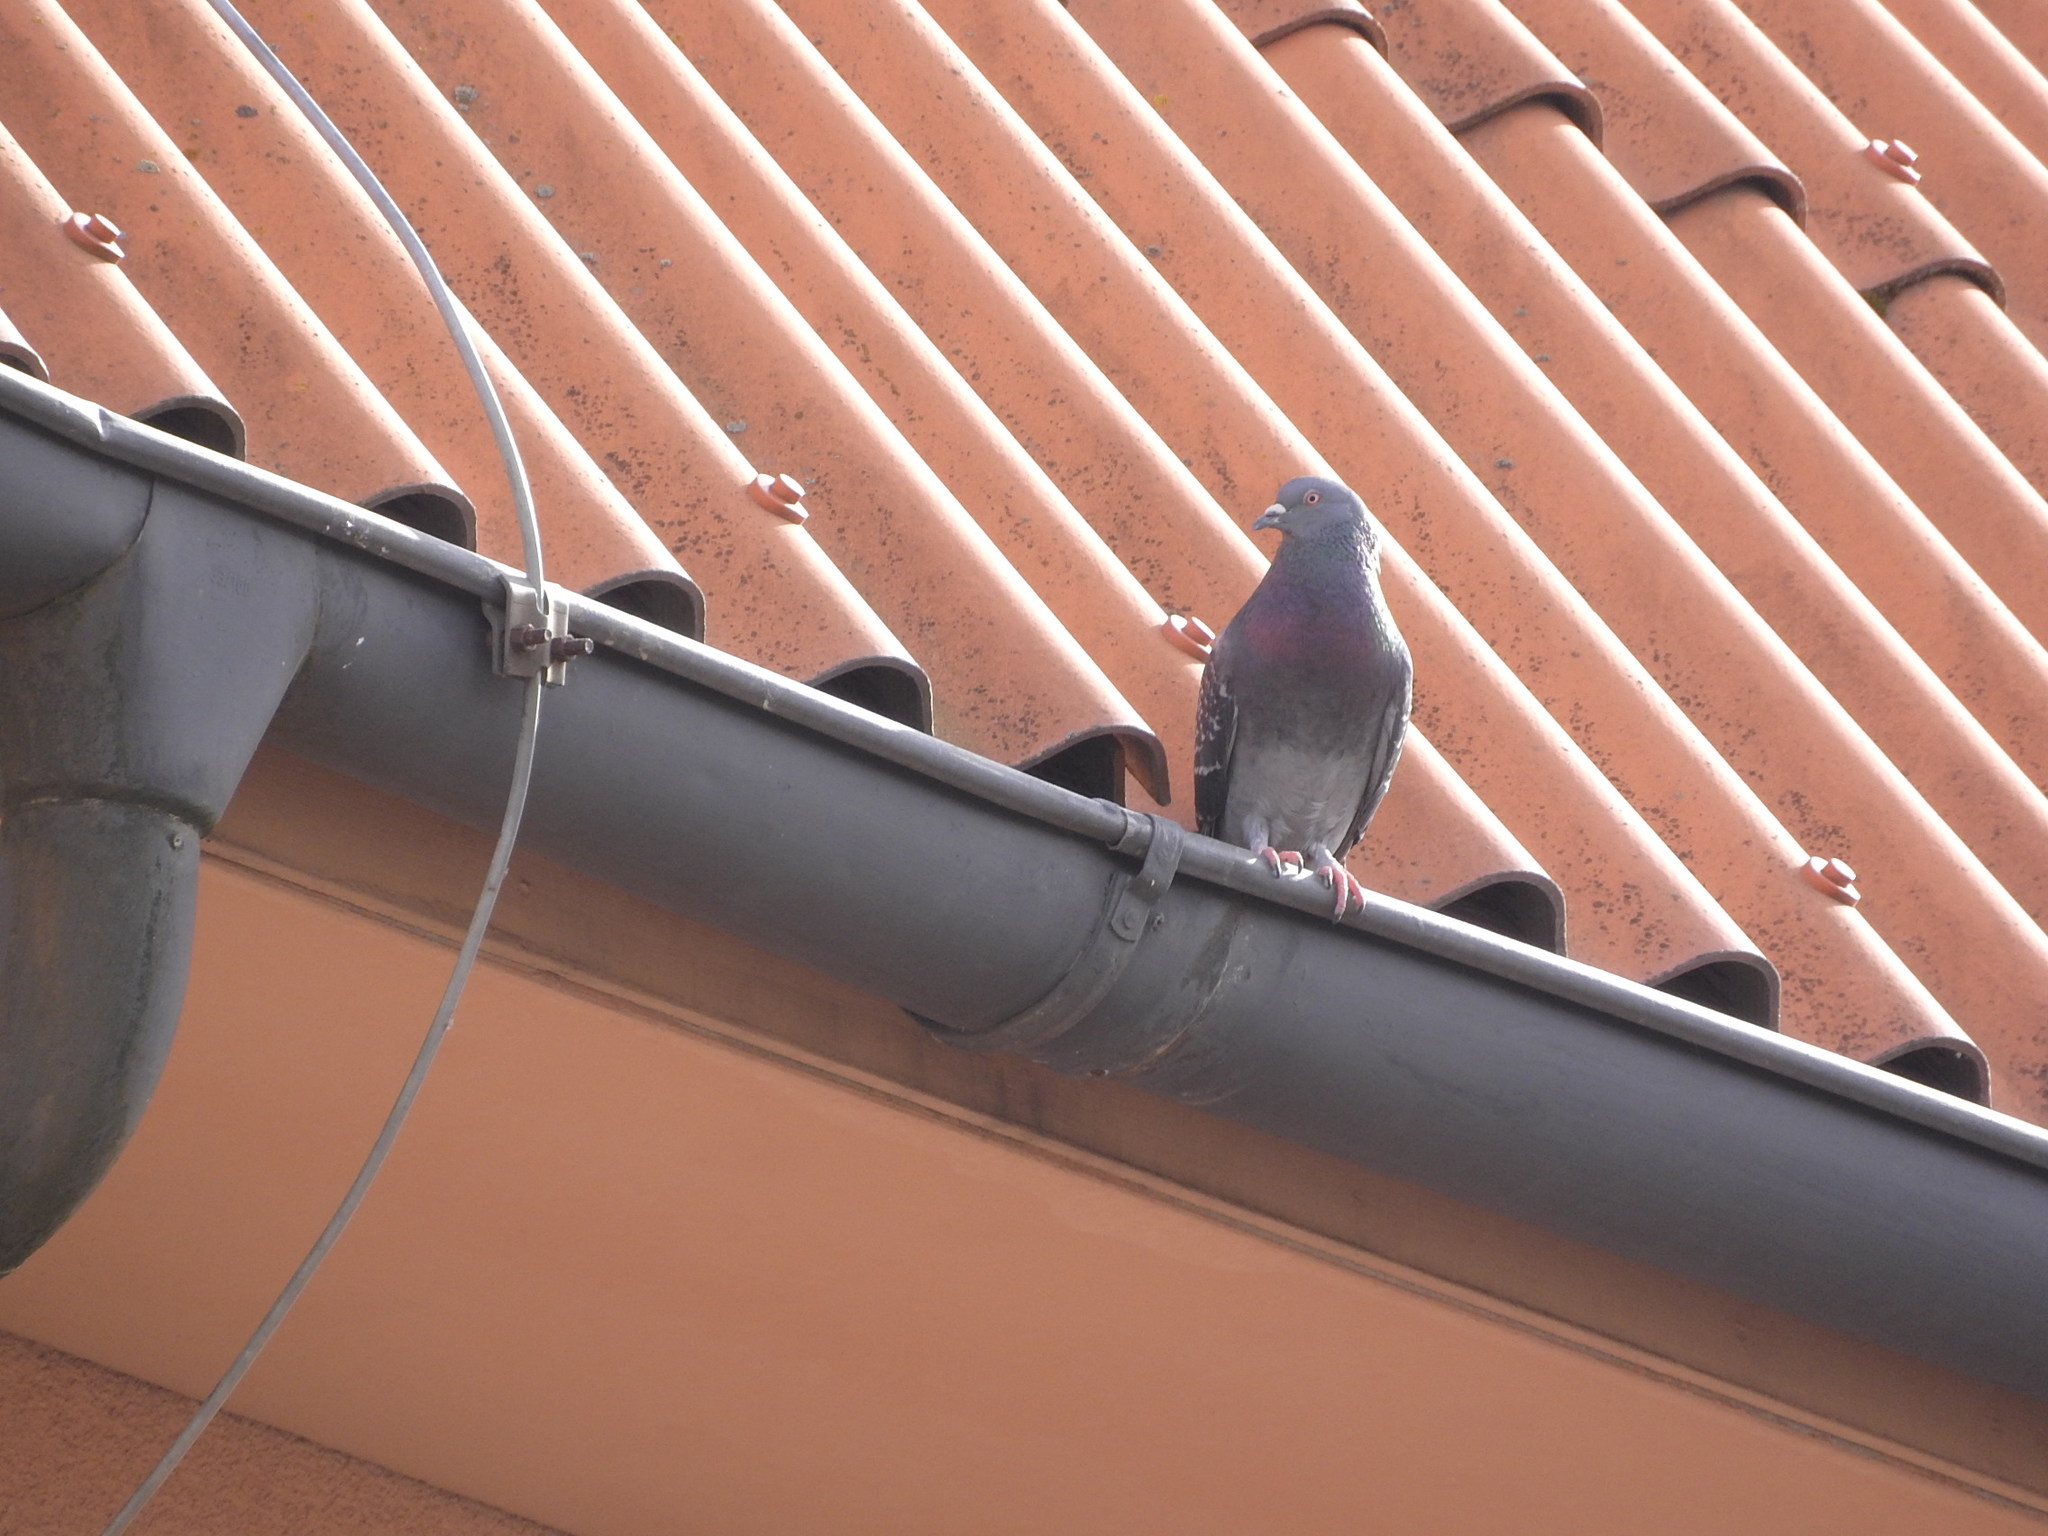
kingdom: Animalia
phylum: Chordata
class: Aves
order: Columbiformes
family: Columbidae
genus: Columba
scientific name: Columba livia
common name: Rock pigeon
